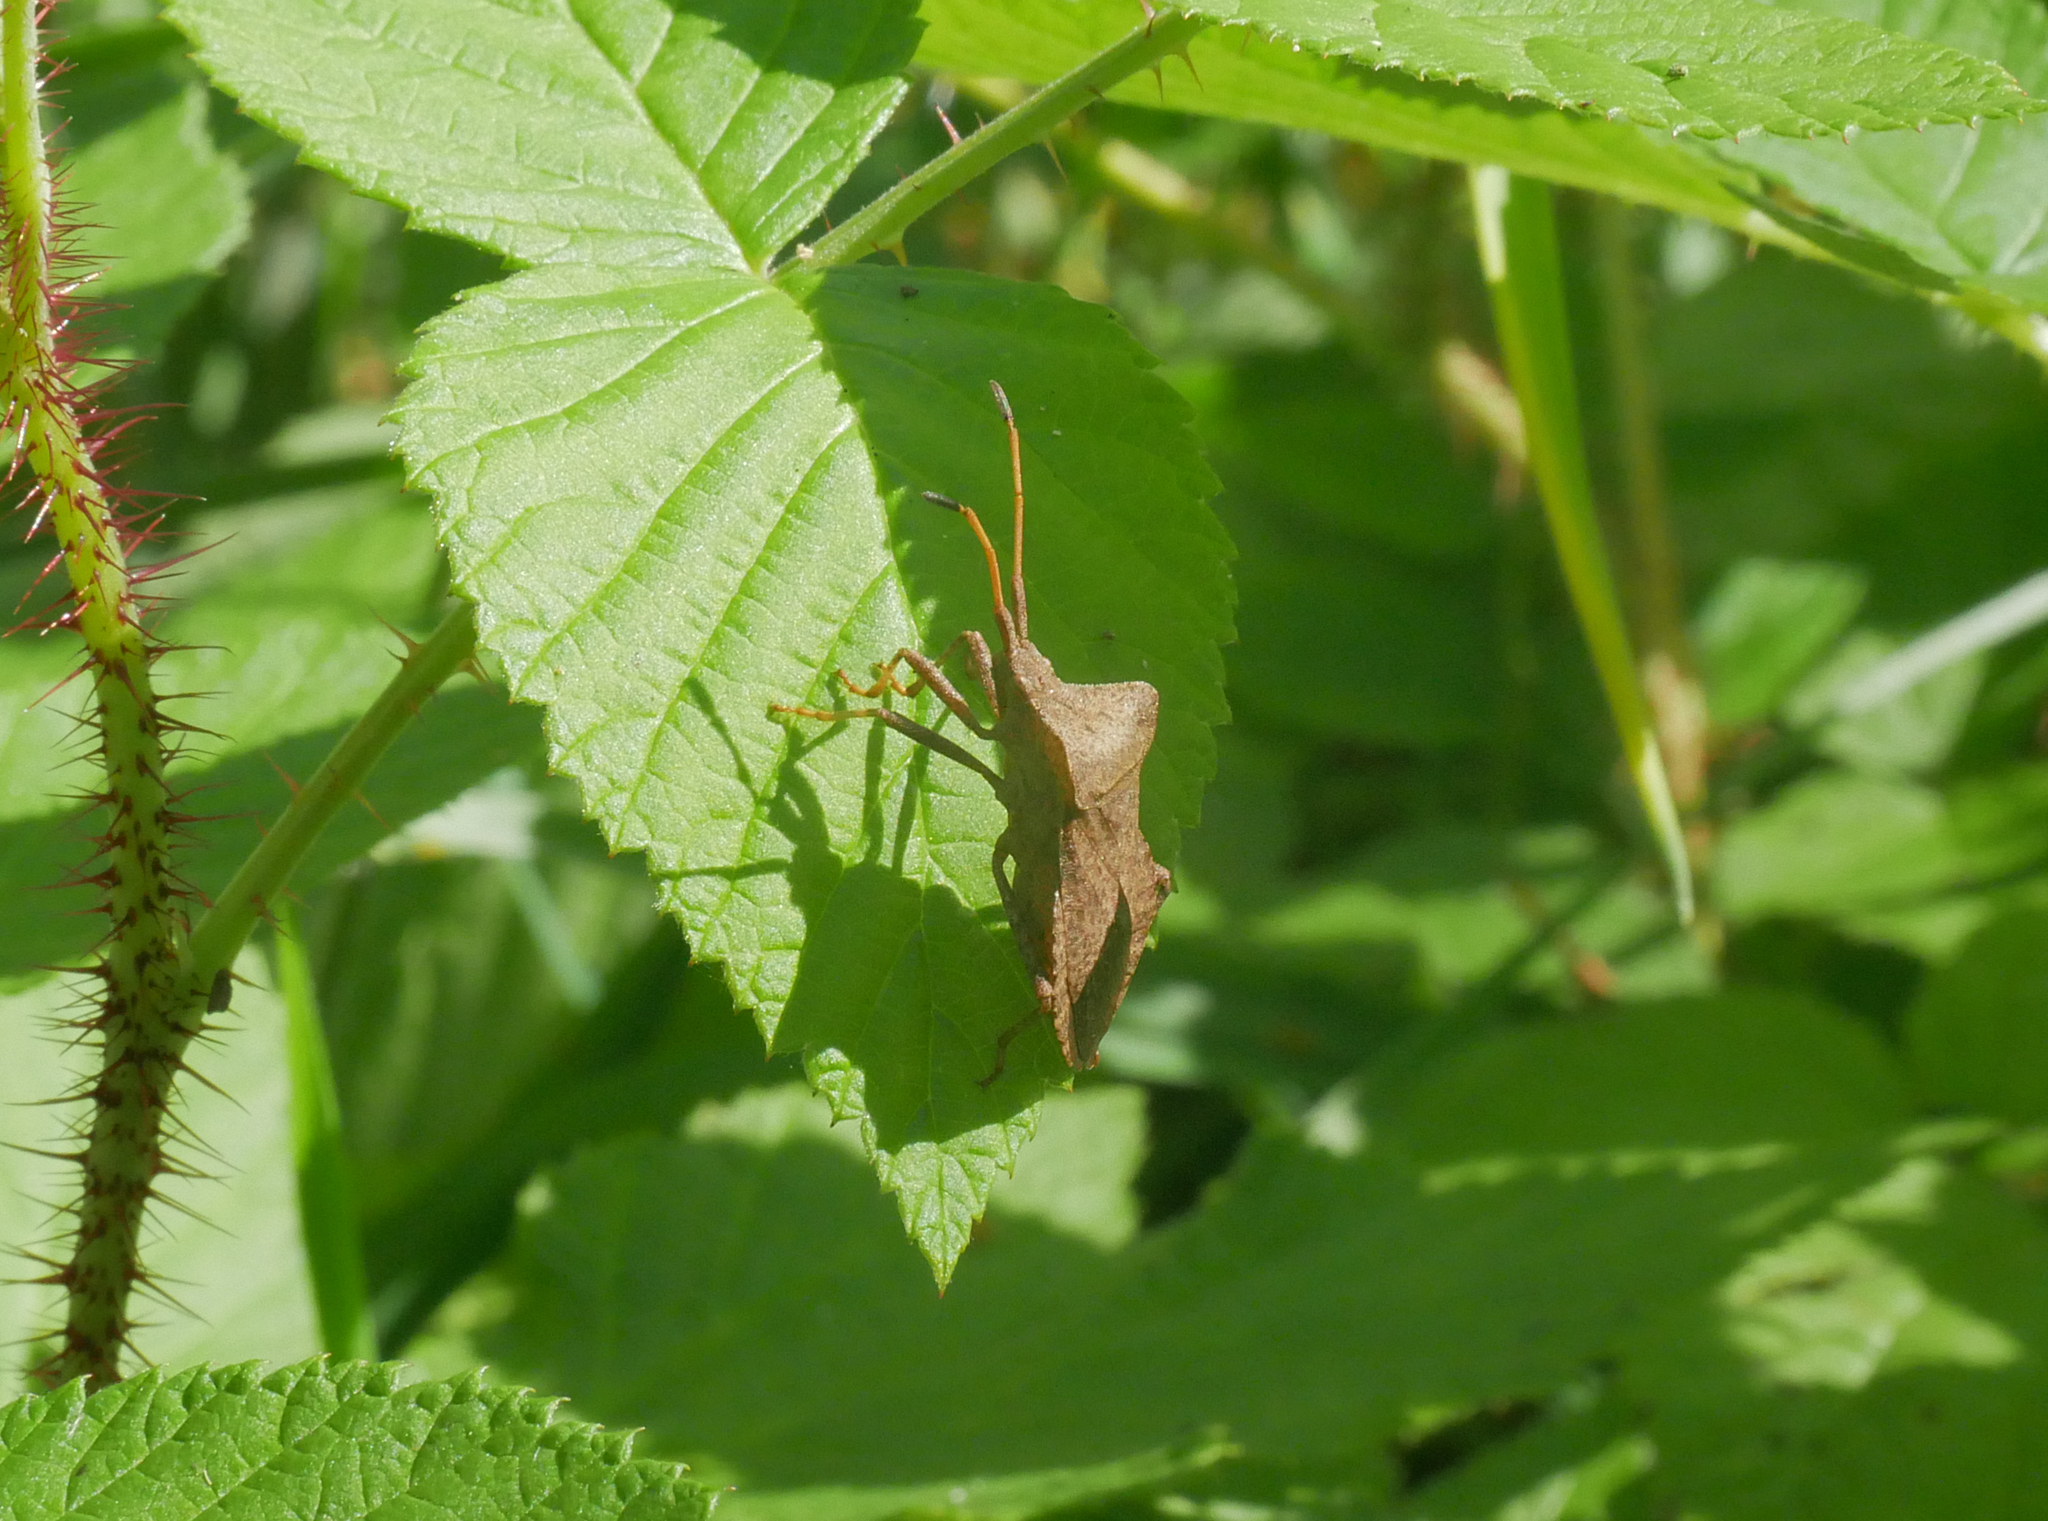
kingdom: Animalia
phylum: Arthropoda
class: Insecta
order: Hemiptera
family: Coreidae
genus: Coreus
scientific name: Coreus marginatus
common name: Dock bug
